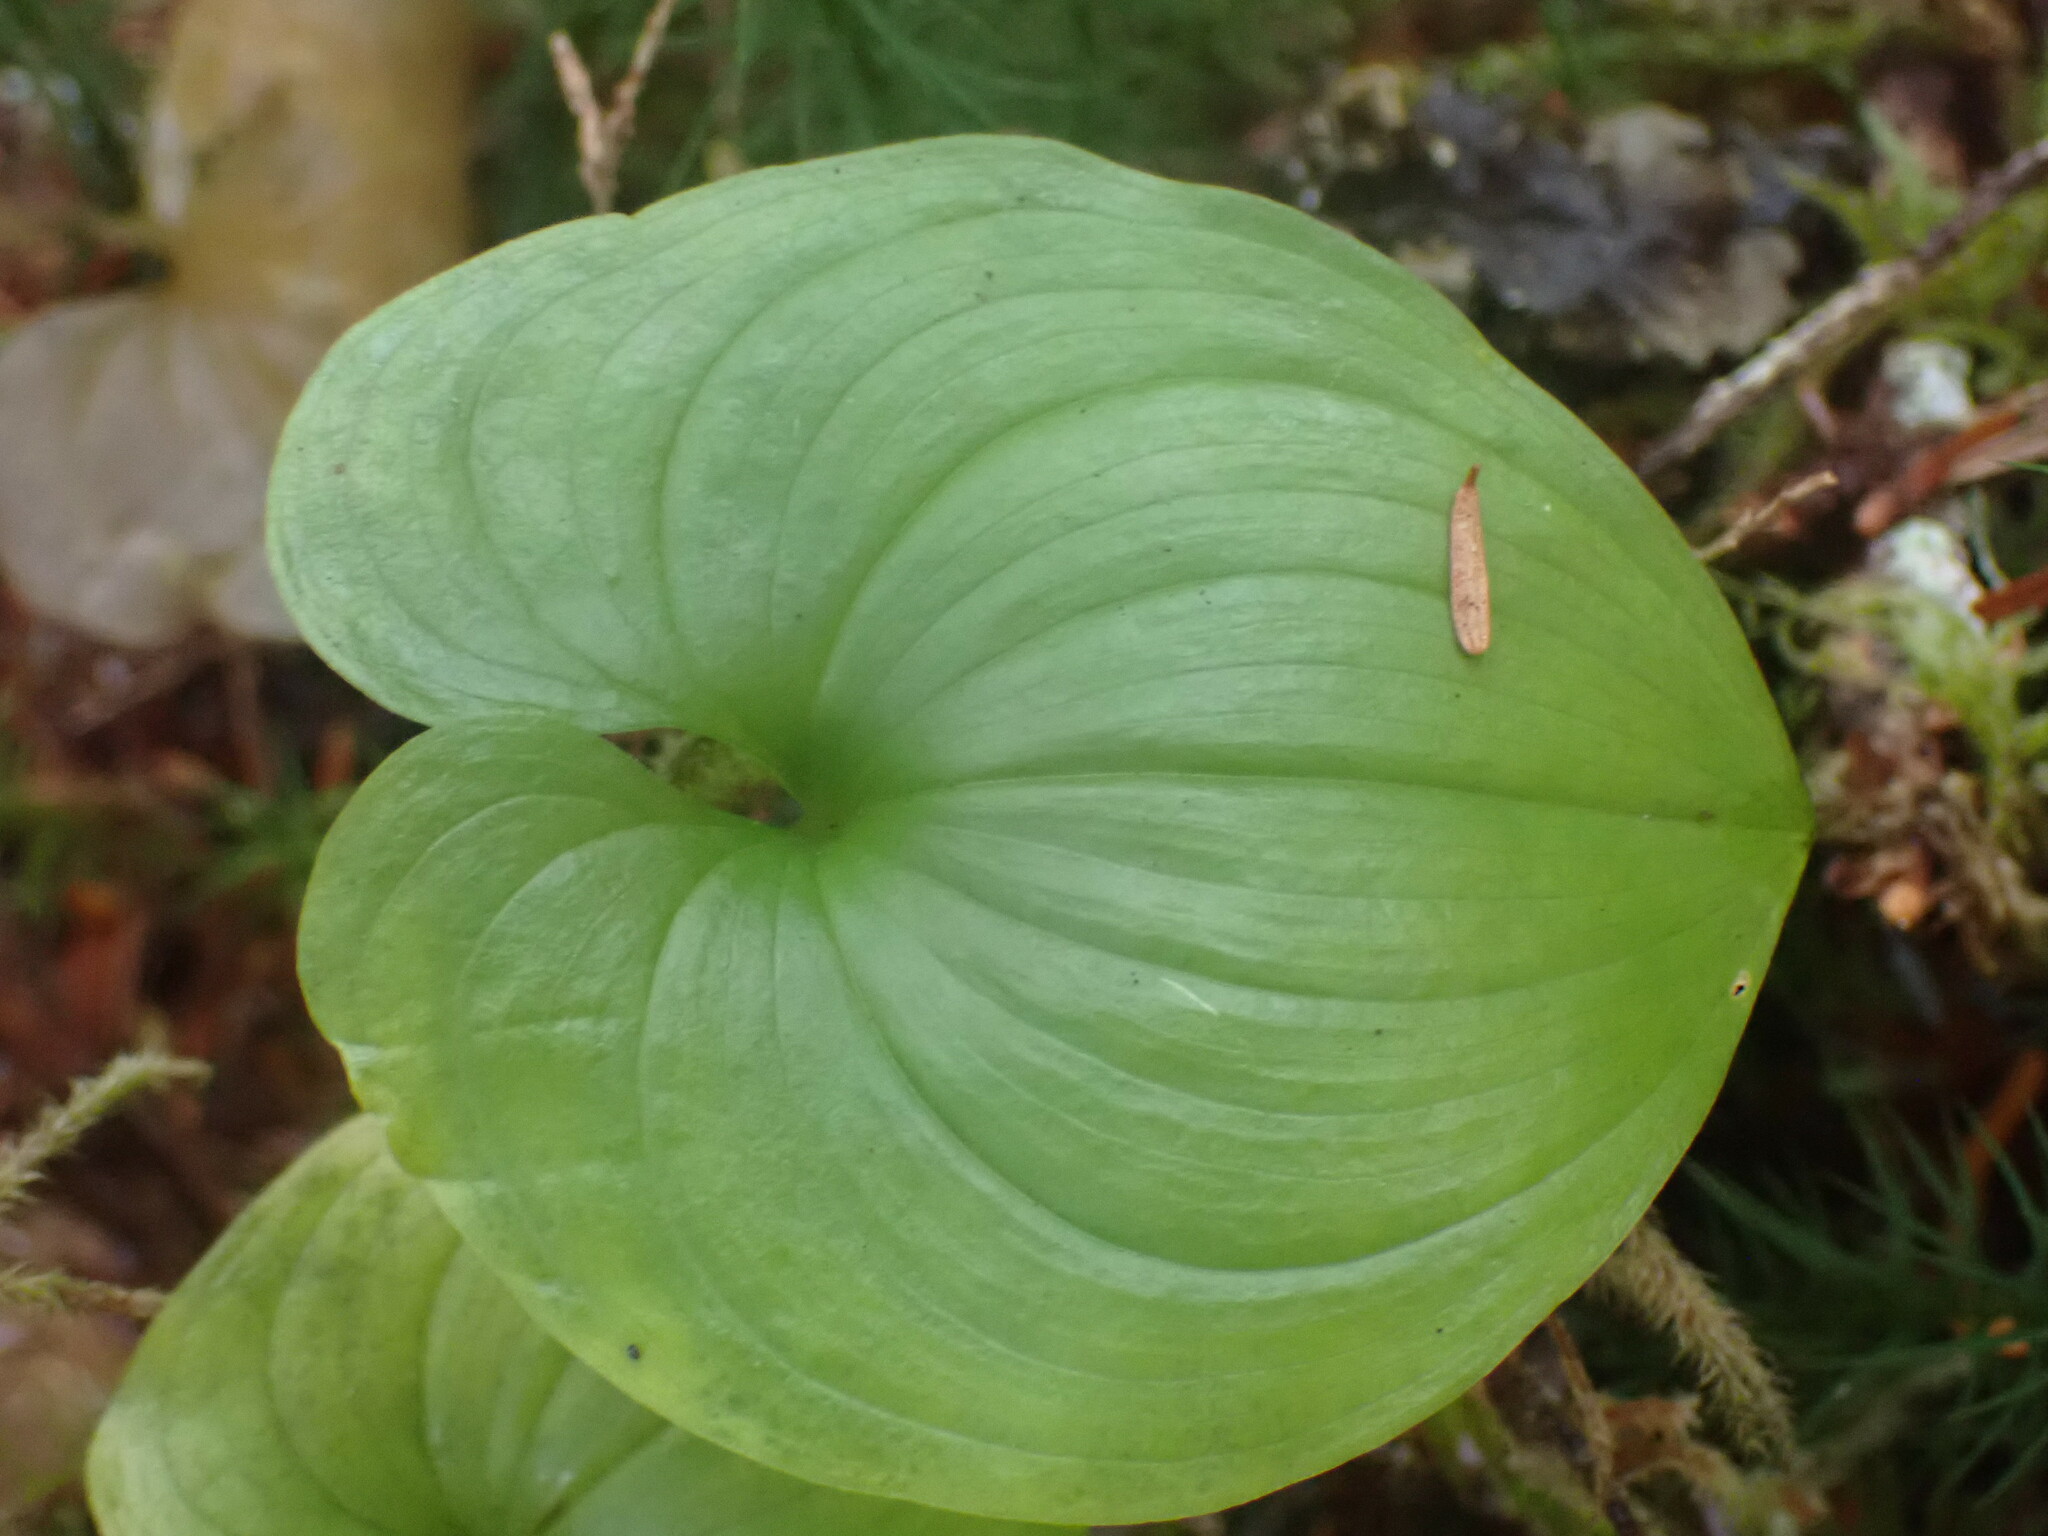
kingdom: Plantae
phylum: Tracheophyta
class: Liliopsida
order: Asparagales
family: Asparagaceae
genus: Maianthemum
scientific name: Maianthemum dilatatum
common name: False lily-of-the-valley
